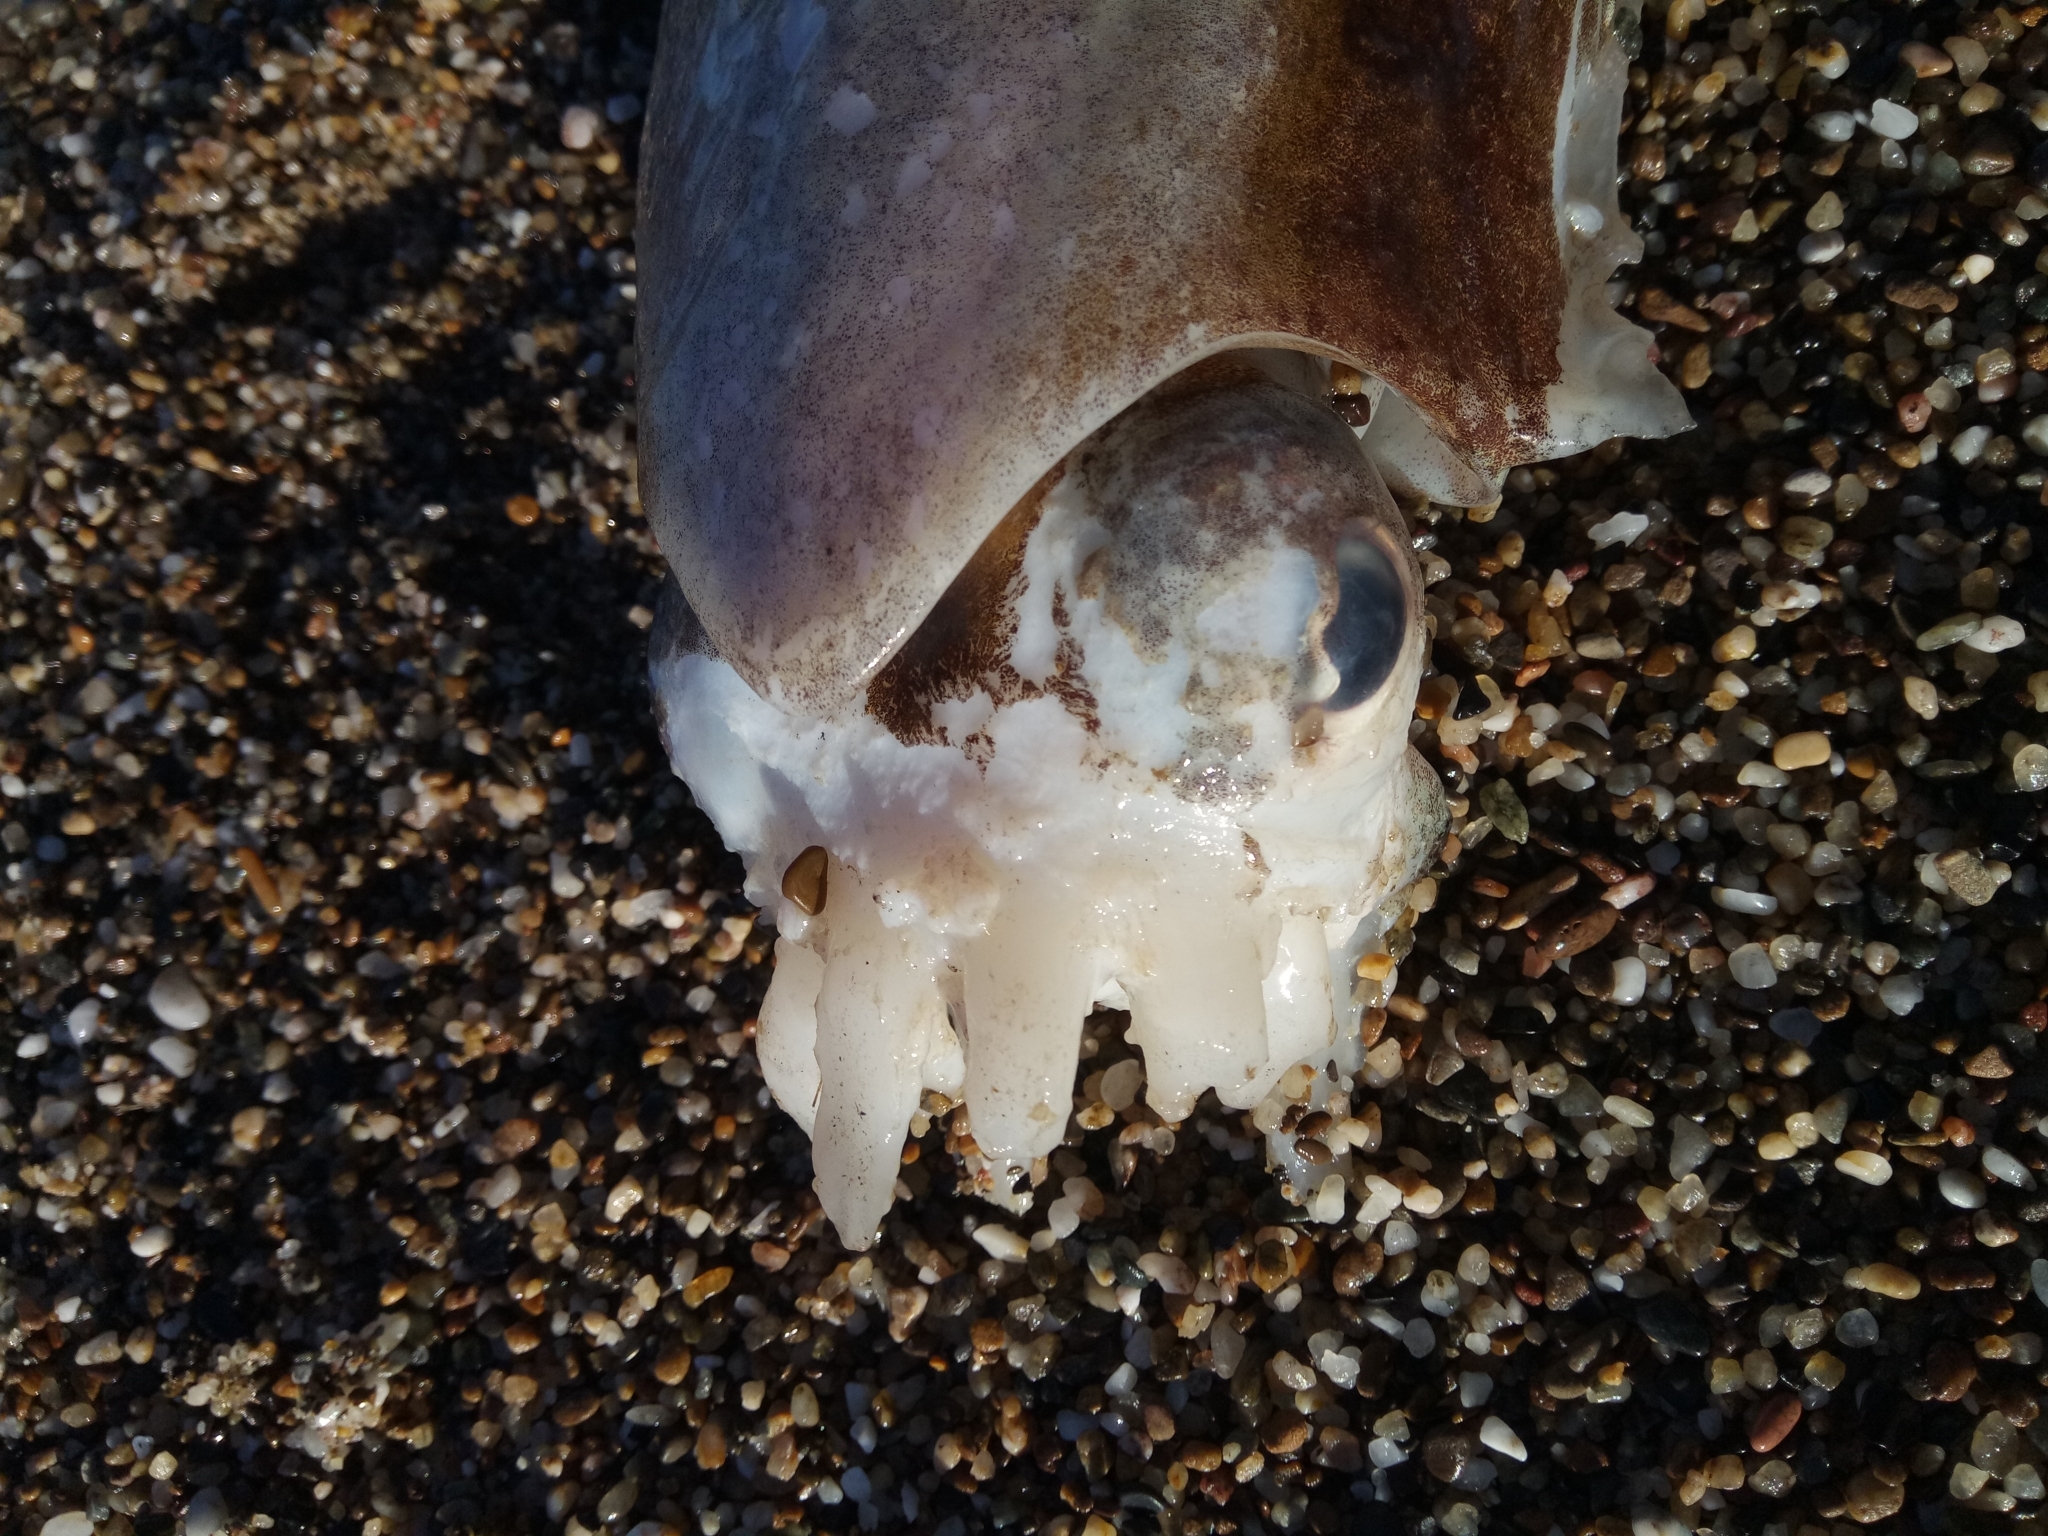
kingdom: Animalia
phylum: Mollusca
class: Cephalopoda
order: Sepiida
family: Sepiidae
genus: Sepia
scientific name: Sepia officinalis
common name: Common cuttlefish
